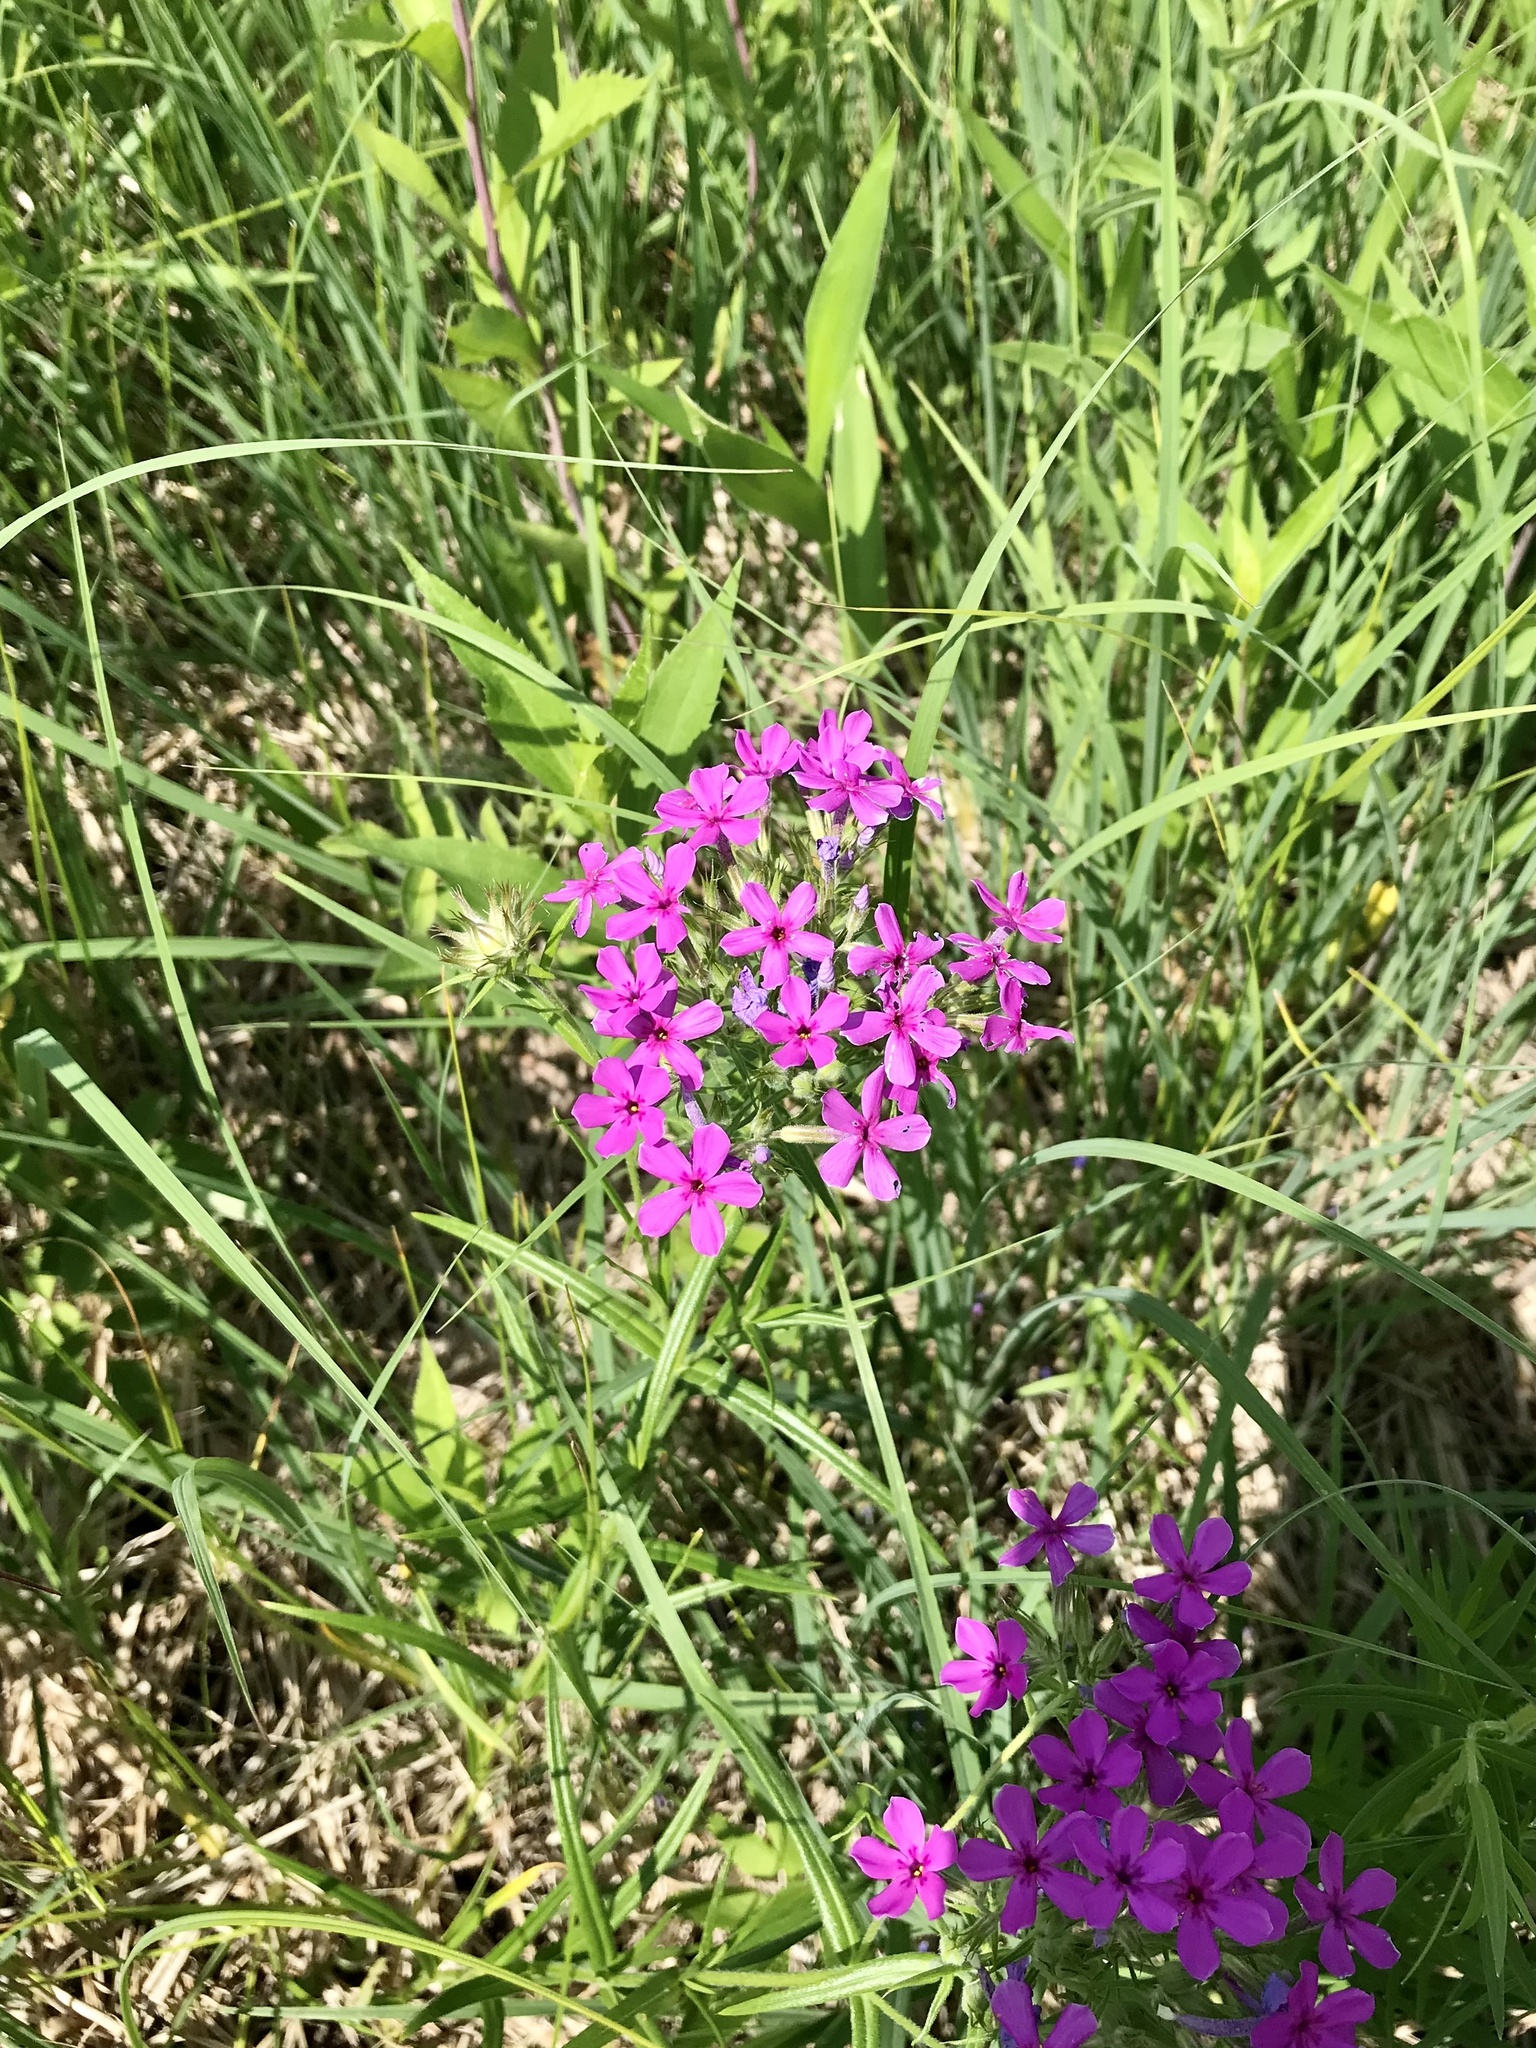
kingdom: Plantae
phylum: Tracheophyta
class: Magnoliopsida
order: Ericales
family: Polemoniaceae
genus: Phlox
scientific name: Phlox pilosa
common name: Prairie phlox
